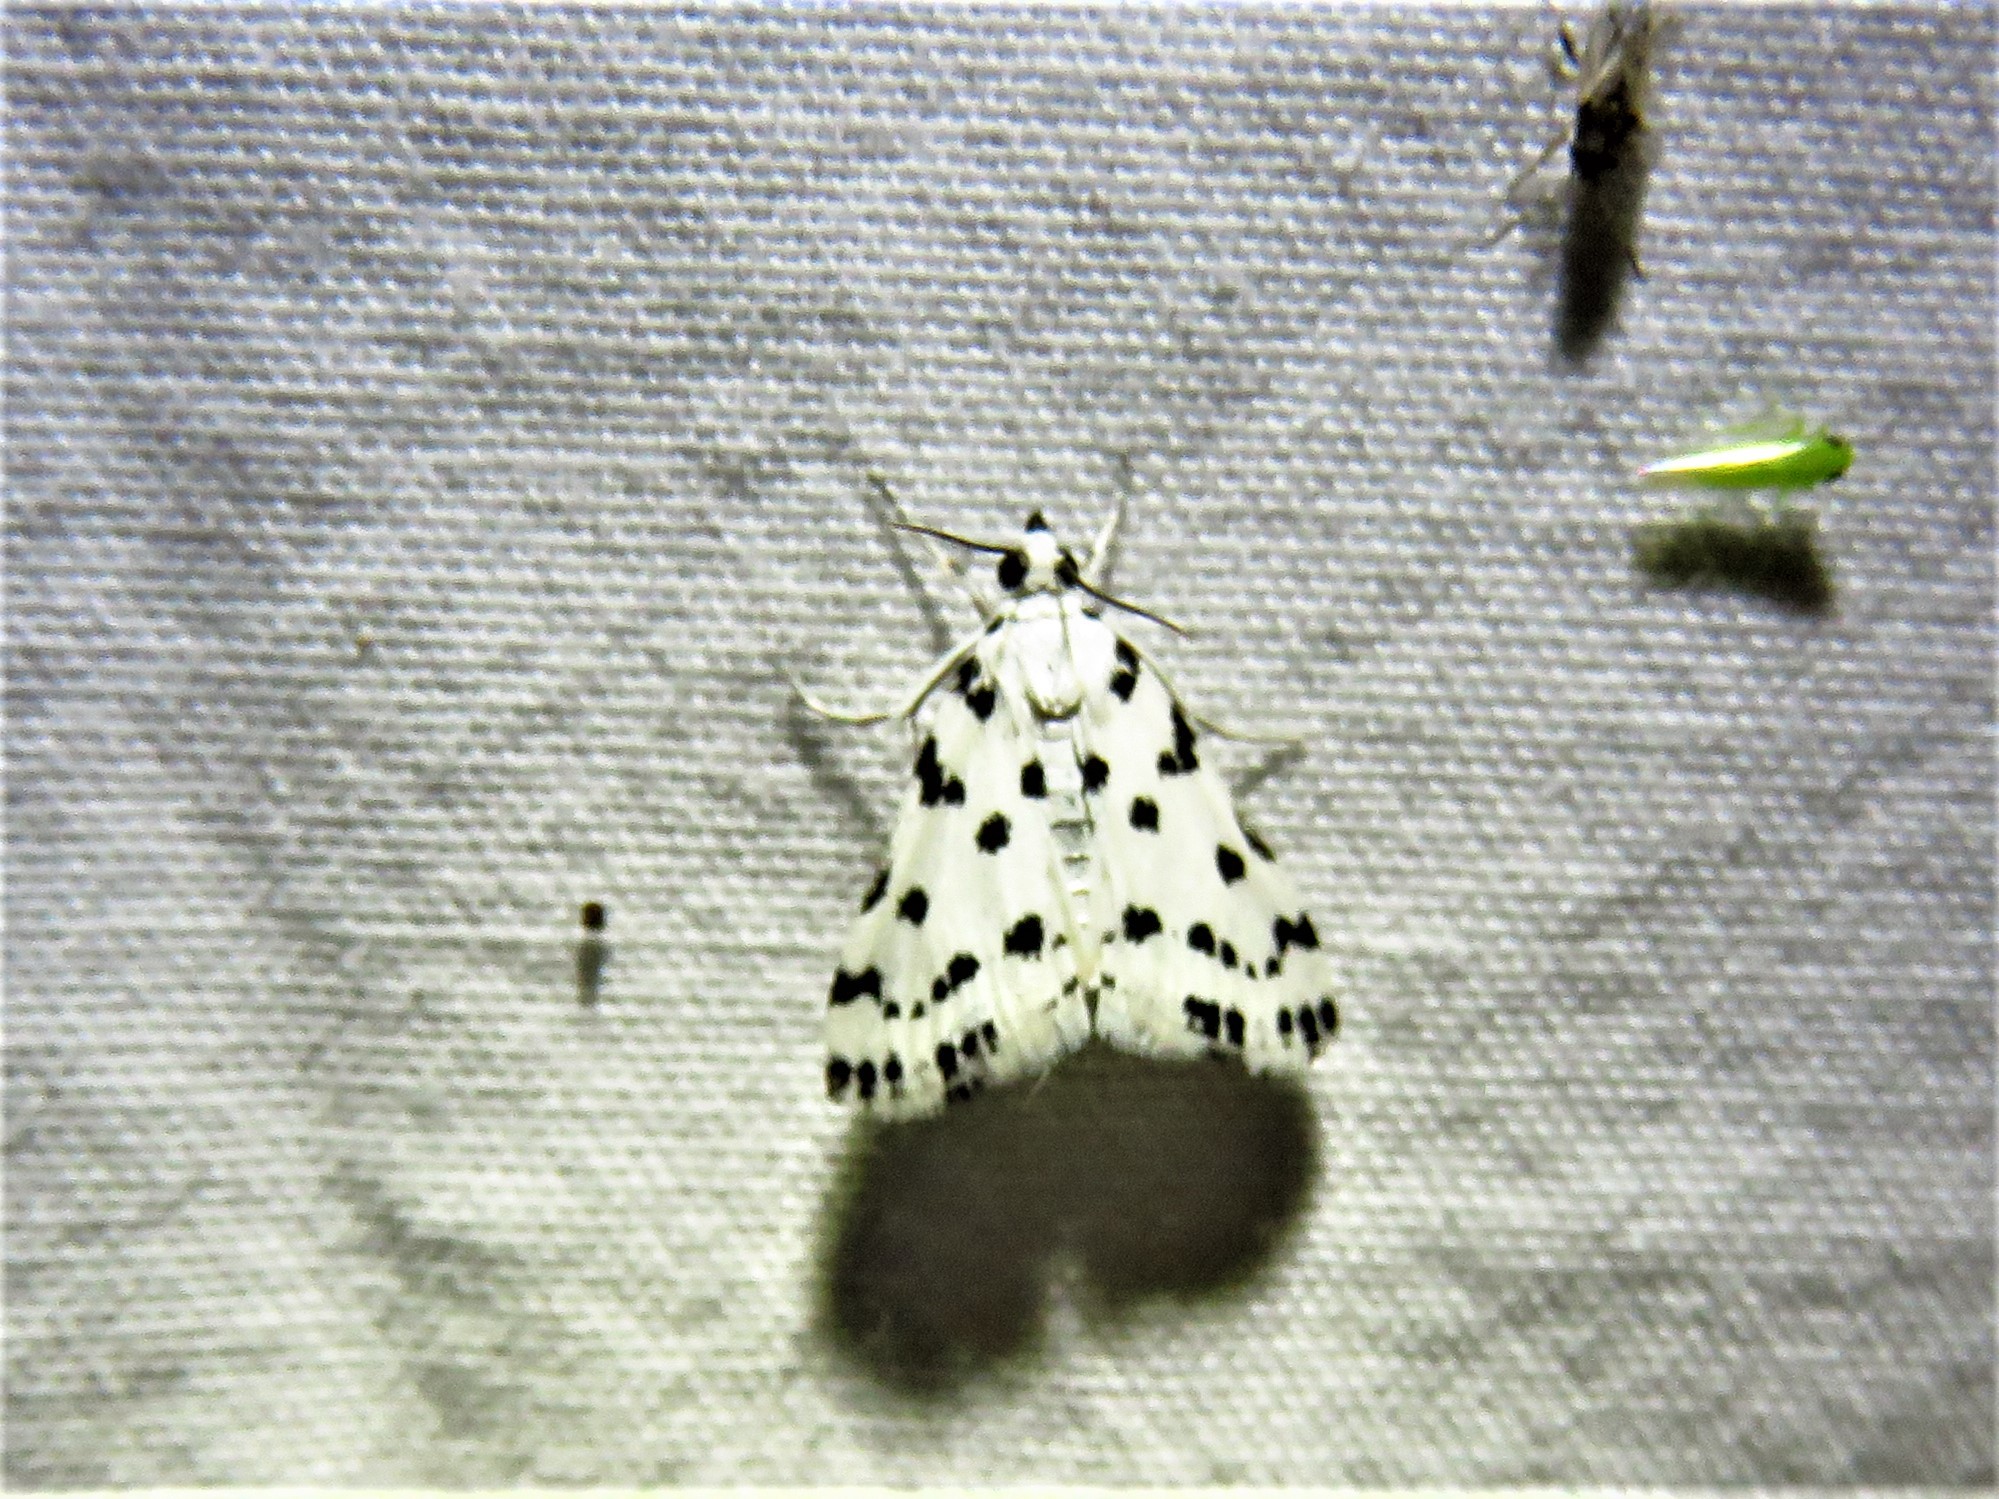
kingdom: Animalia
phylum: Arthropoda
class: Insecta
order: Lepidoptera
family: Crambidae
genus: Eustixia
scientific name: Eustixia pupula
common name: American cabbage pearl
